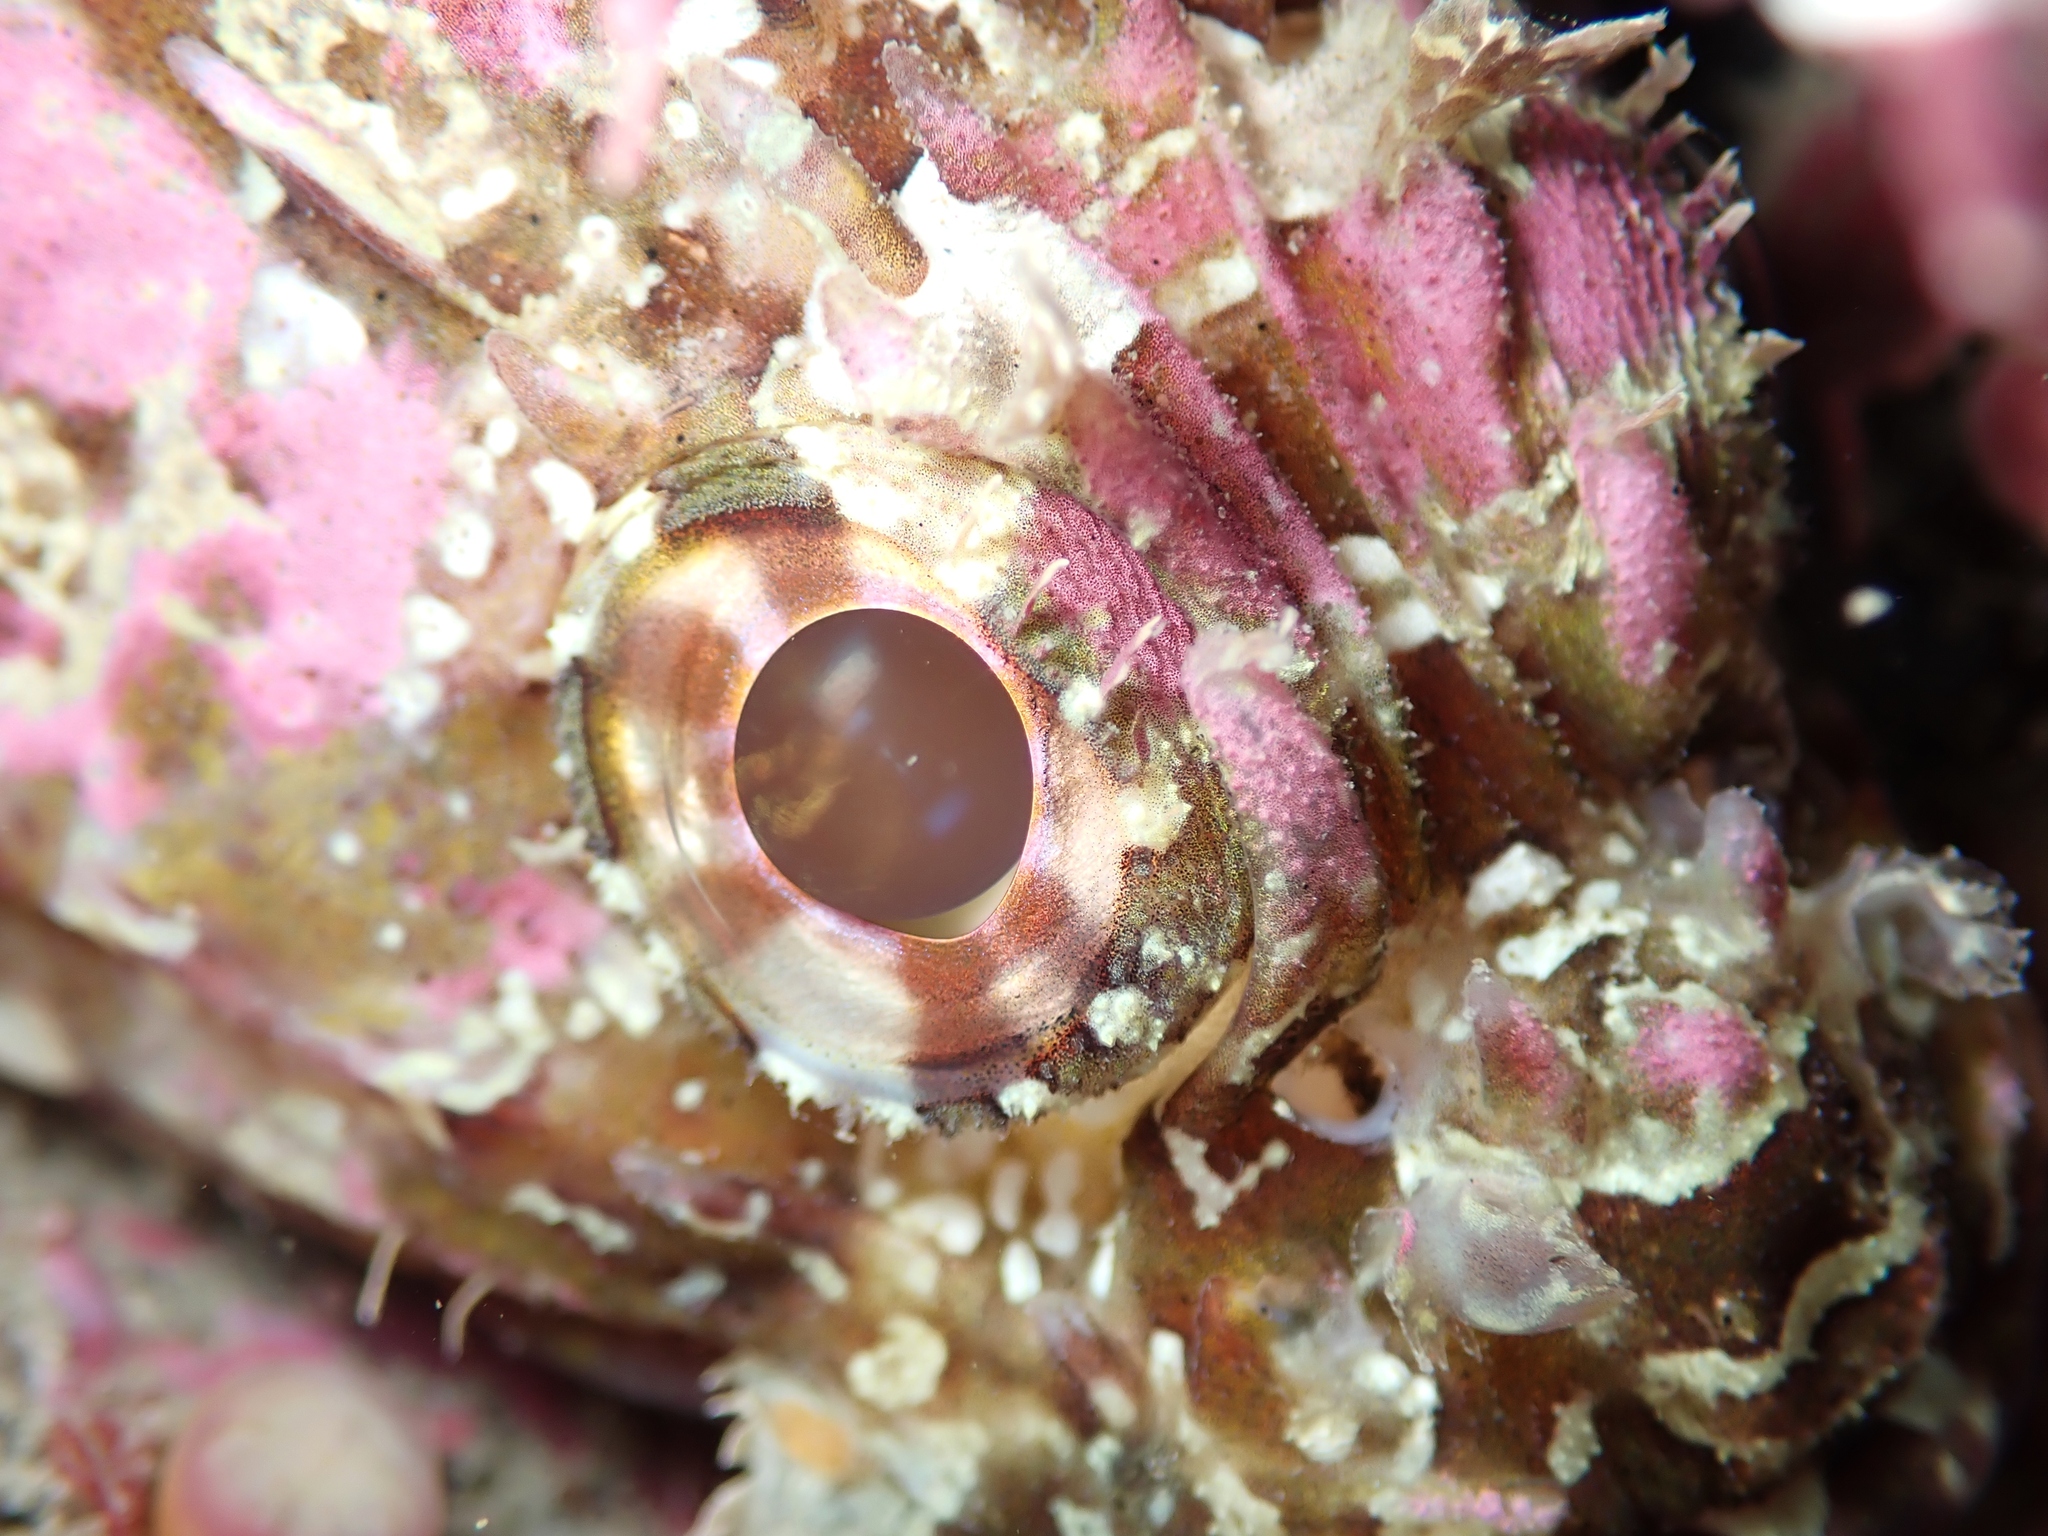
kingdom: Animalia
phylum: Chordata
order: Scorpaeniformes
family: Scorpaenidae
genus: Scorpaena
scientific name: Scorpaena papillosa
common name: Chained scorpionfish
